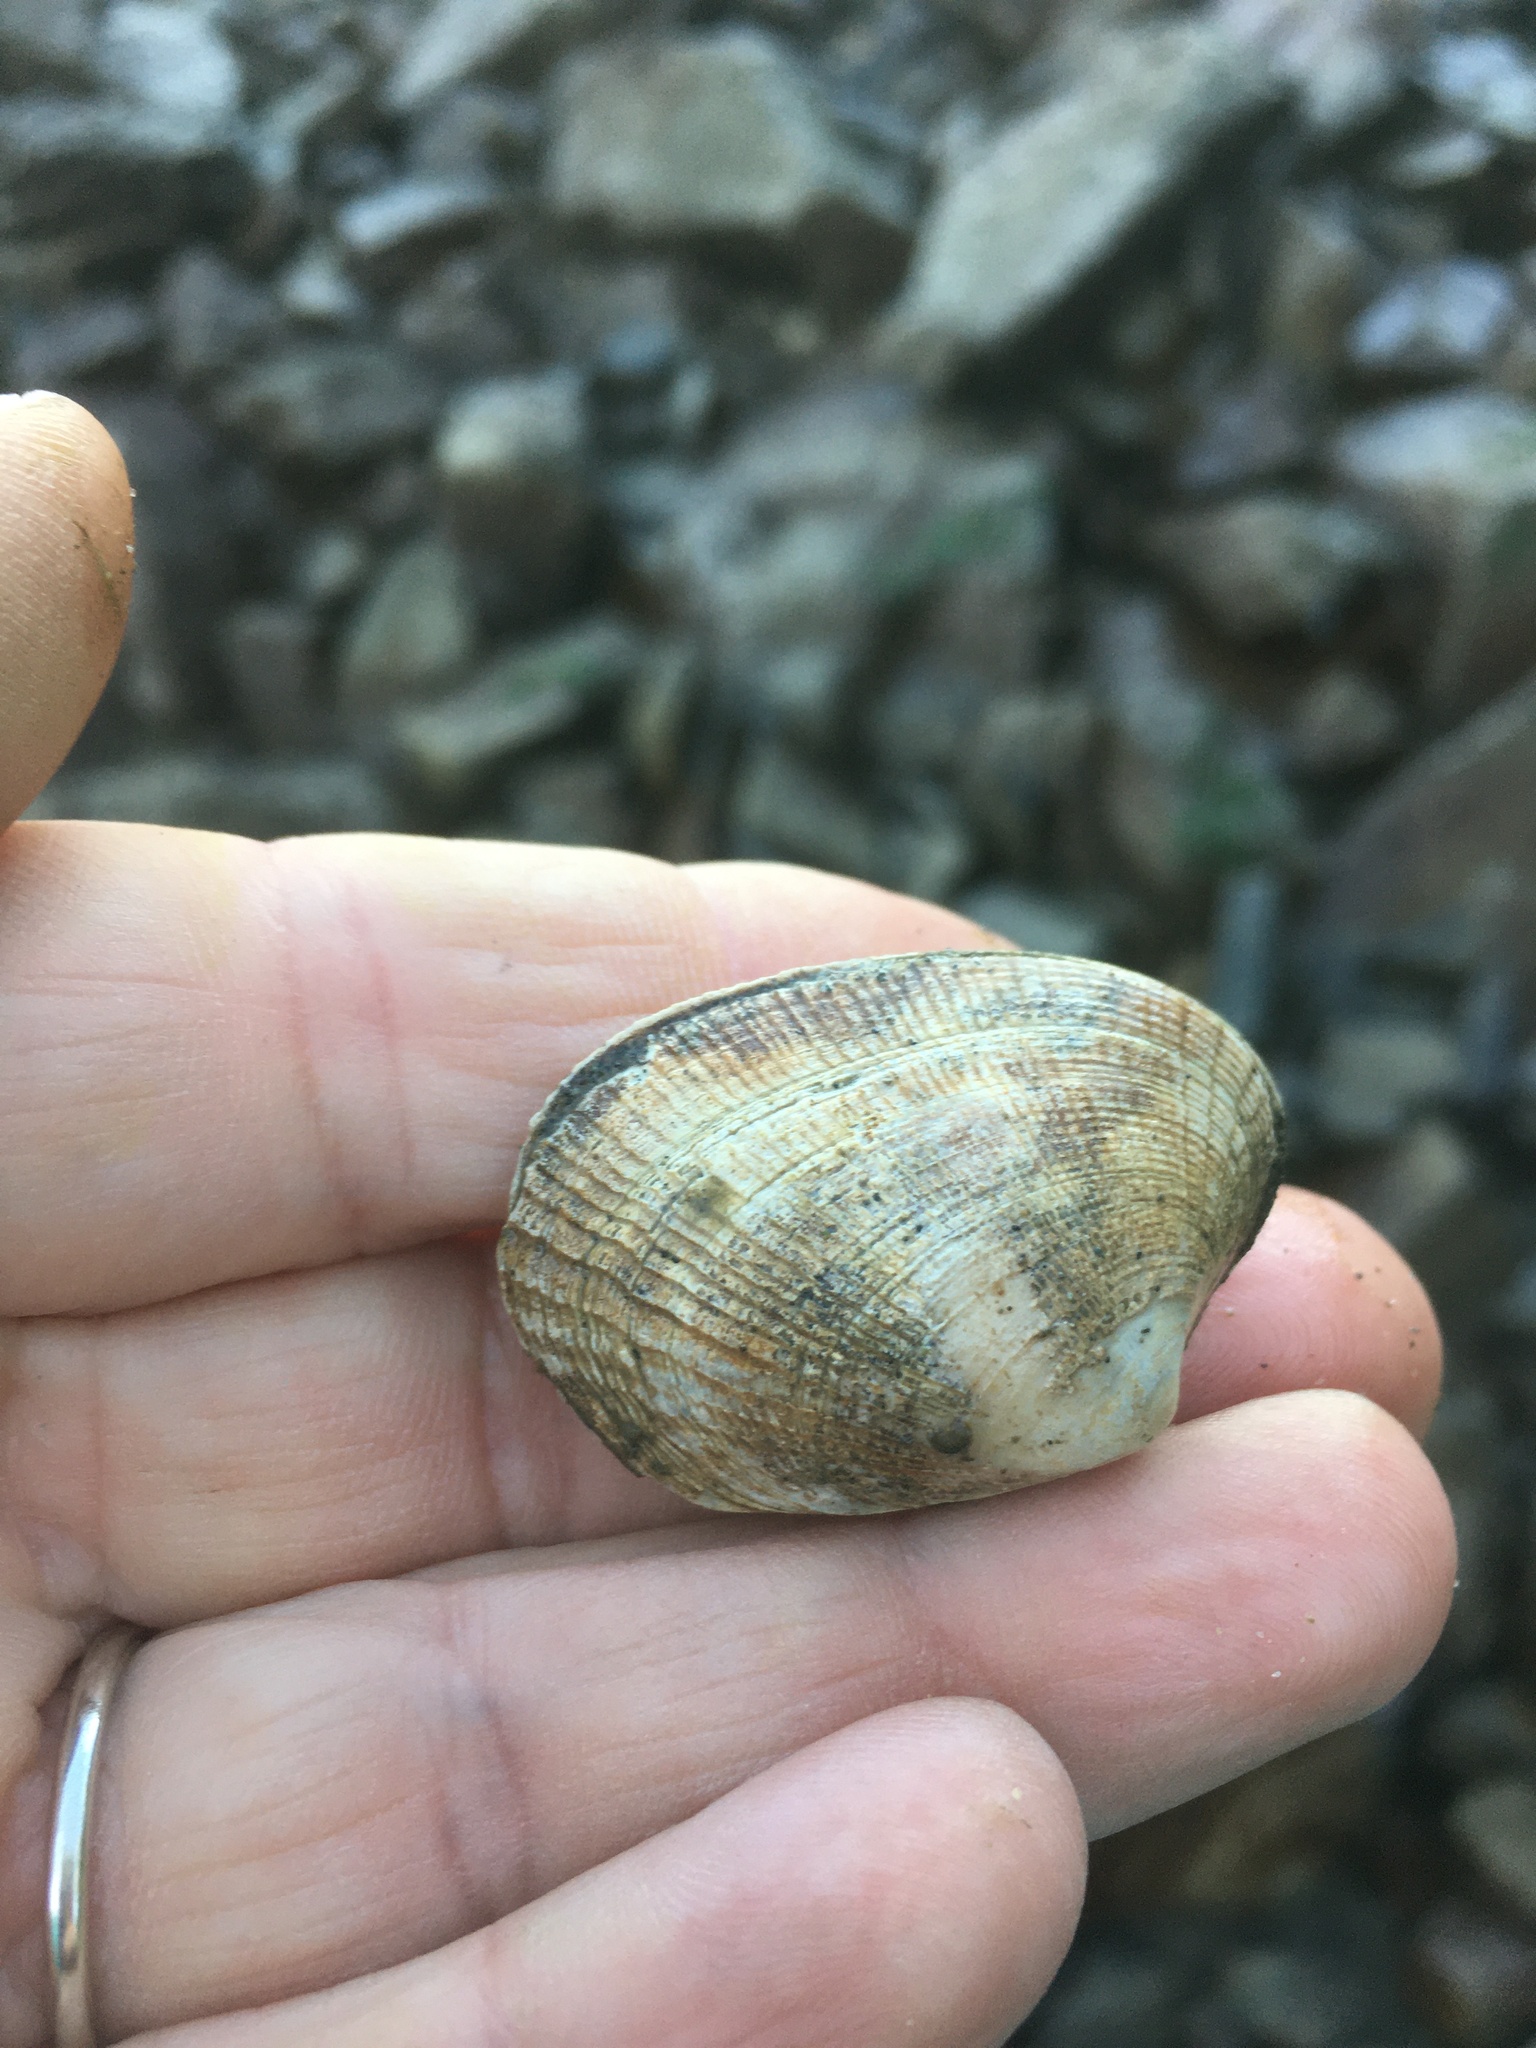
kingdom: Animalia
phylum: Mollusca
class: Bivalvia
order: Venerida
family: Veneridae
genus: Ruditapes
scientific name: Ruditapes philippinarum
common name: Manila clam
